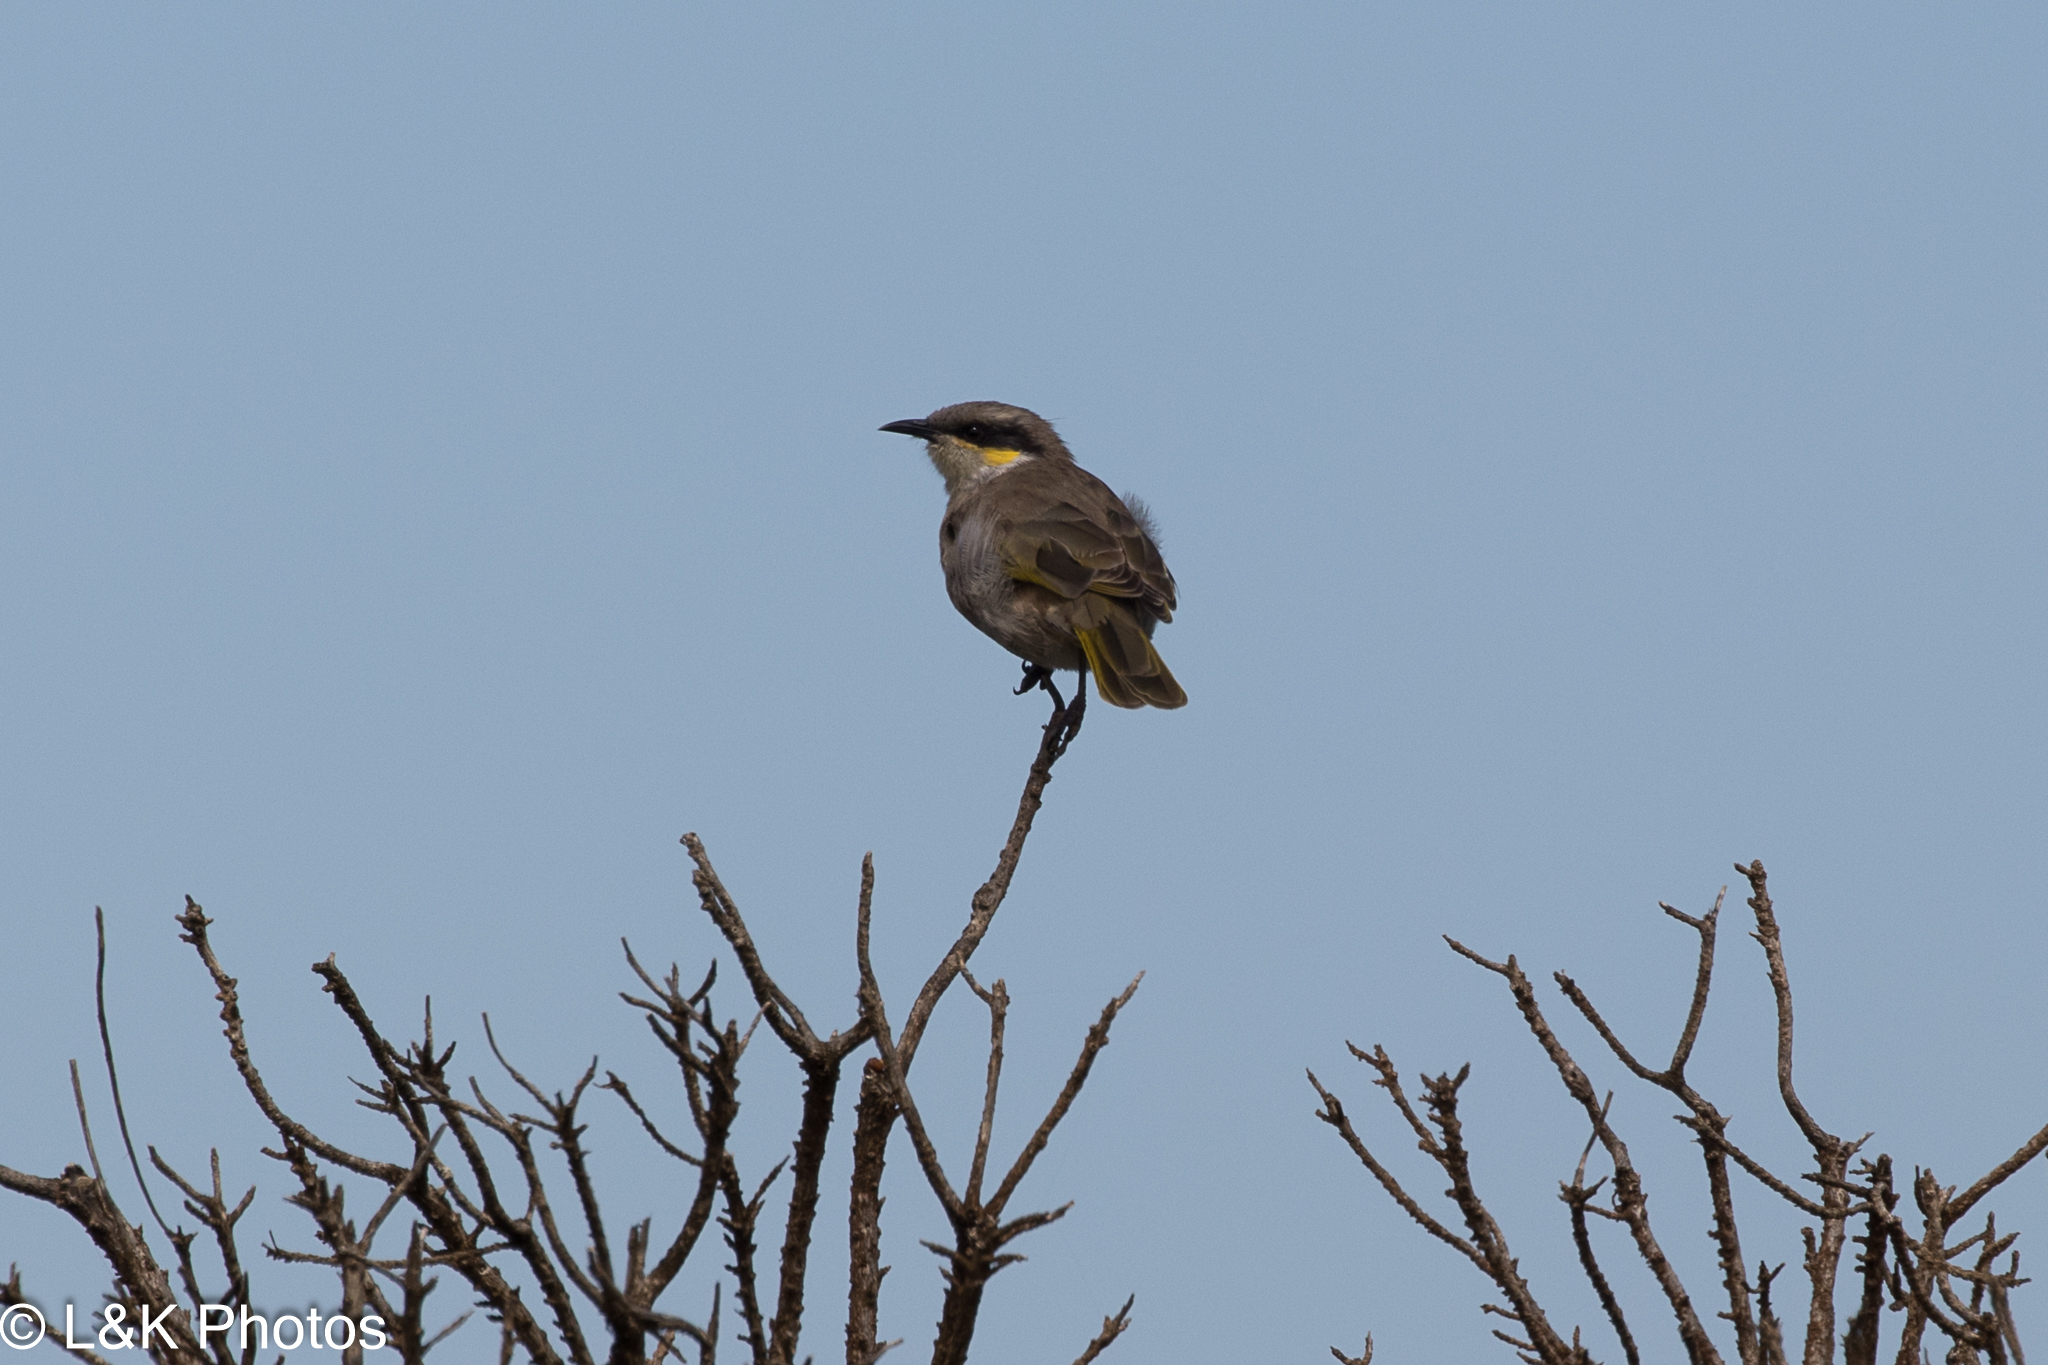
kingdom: Animalia
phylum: Chordata
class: Aves
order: Passeriformes
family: Meliphagidae
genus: Gavicalis
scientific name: Gavicalis virescens
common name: Singing honeyeater
